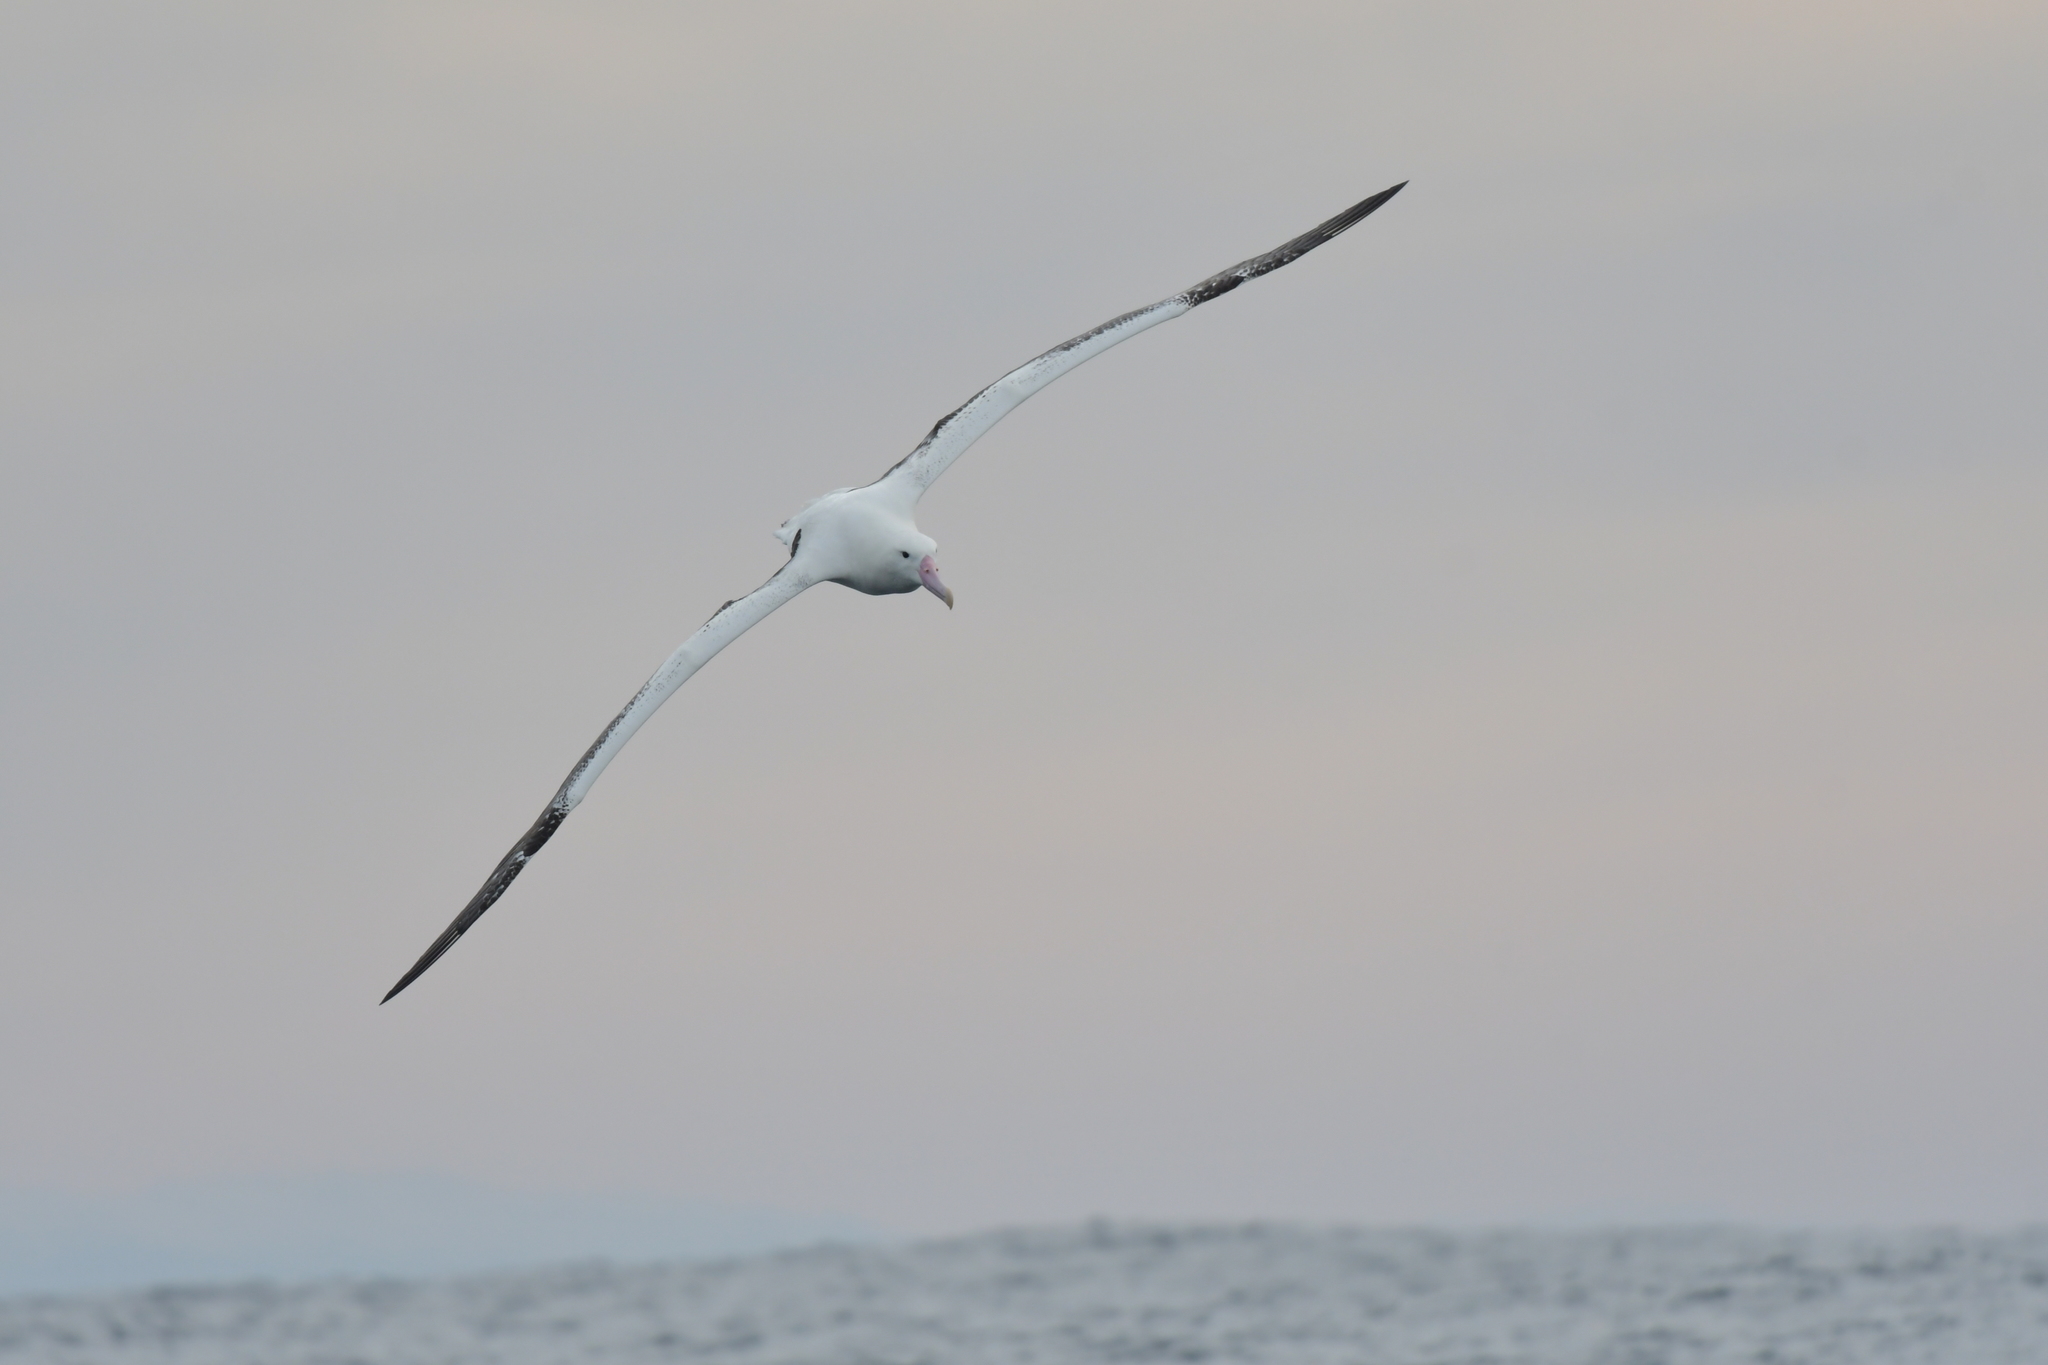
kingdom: Animalia
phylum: Chordata
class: Aves
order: Procellariiformes
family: Diomedeidae
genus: Diomedea
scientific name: Diomedea epomophora
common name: Southern royal albatross
